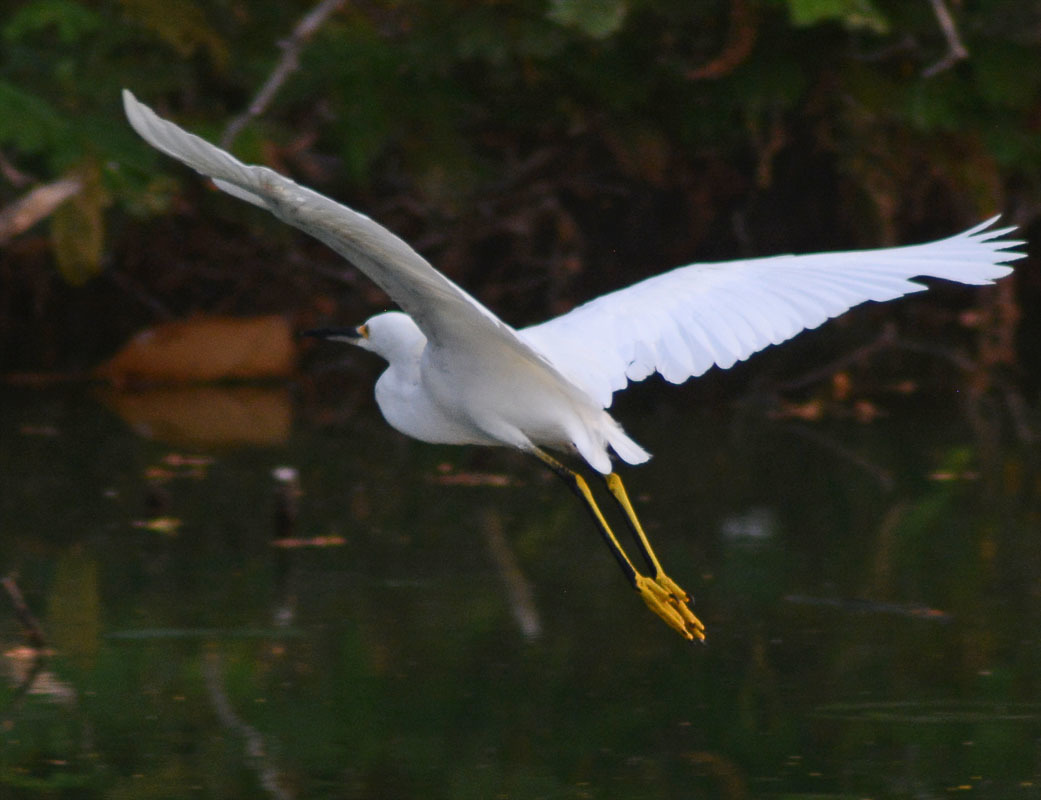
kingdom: Animalia
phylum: Chordata
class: Aves
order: Pelecaniformes
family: Ardeidae
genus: Egretta
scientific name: Egretta thula
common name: Snowy egret
